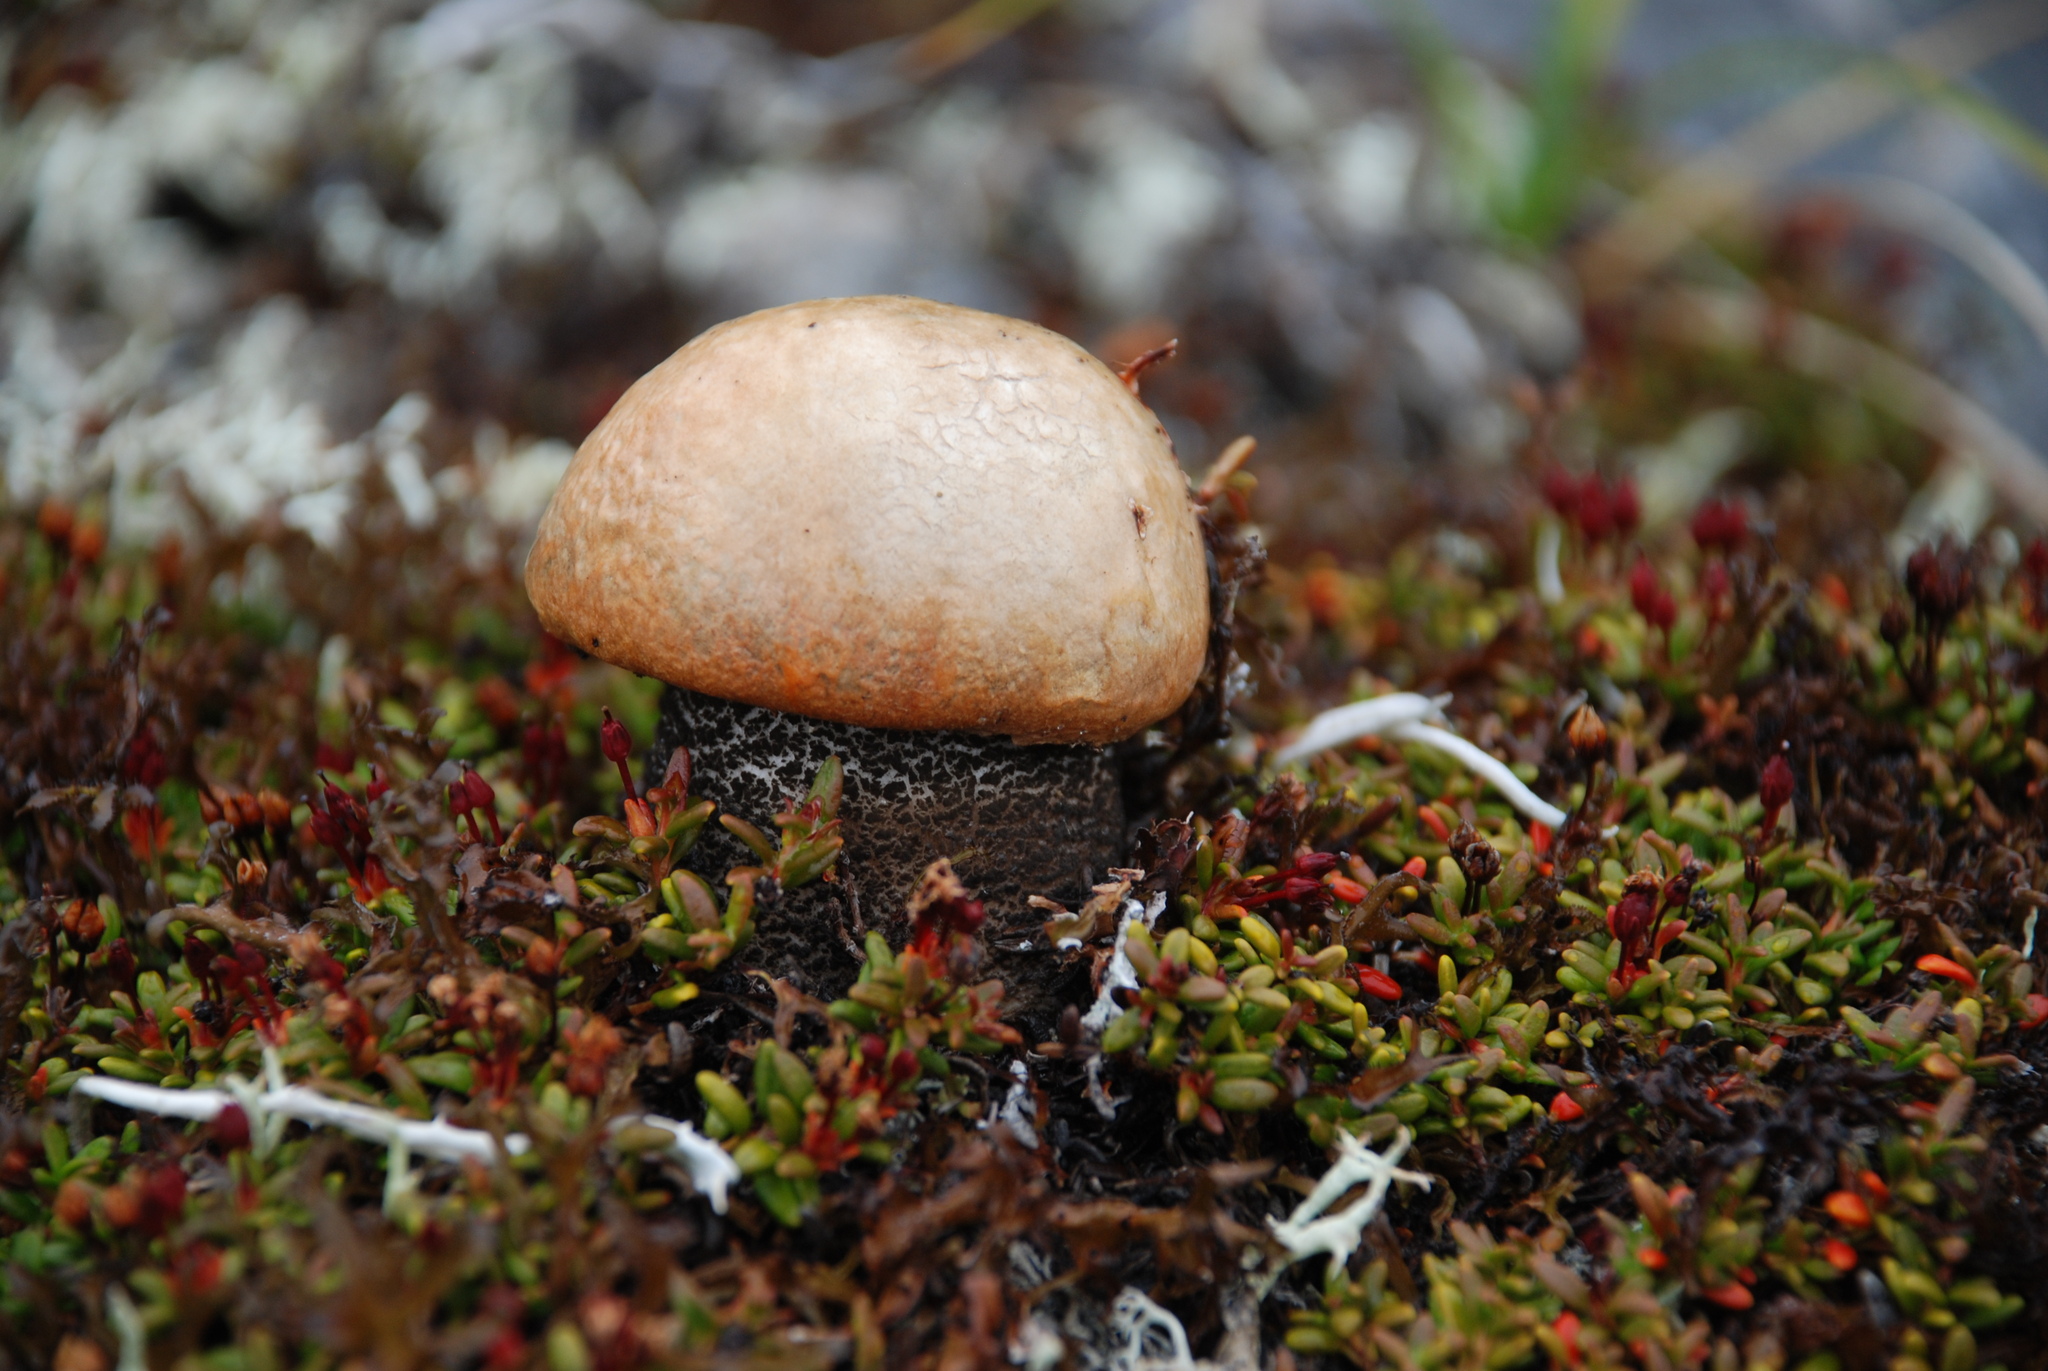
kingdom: Fungi
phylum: Basidiomycota
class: Agaricomycetes
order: Boletales
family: Boletaceae
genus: Leccinum
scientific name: Leccinum versipelle
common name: Orange birch bolete
